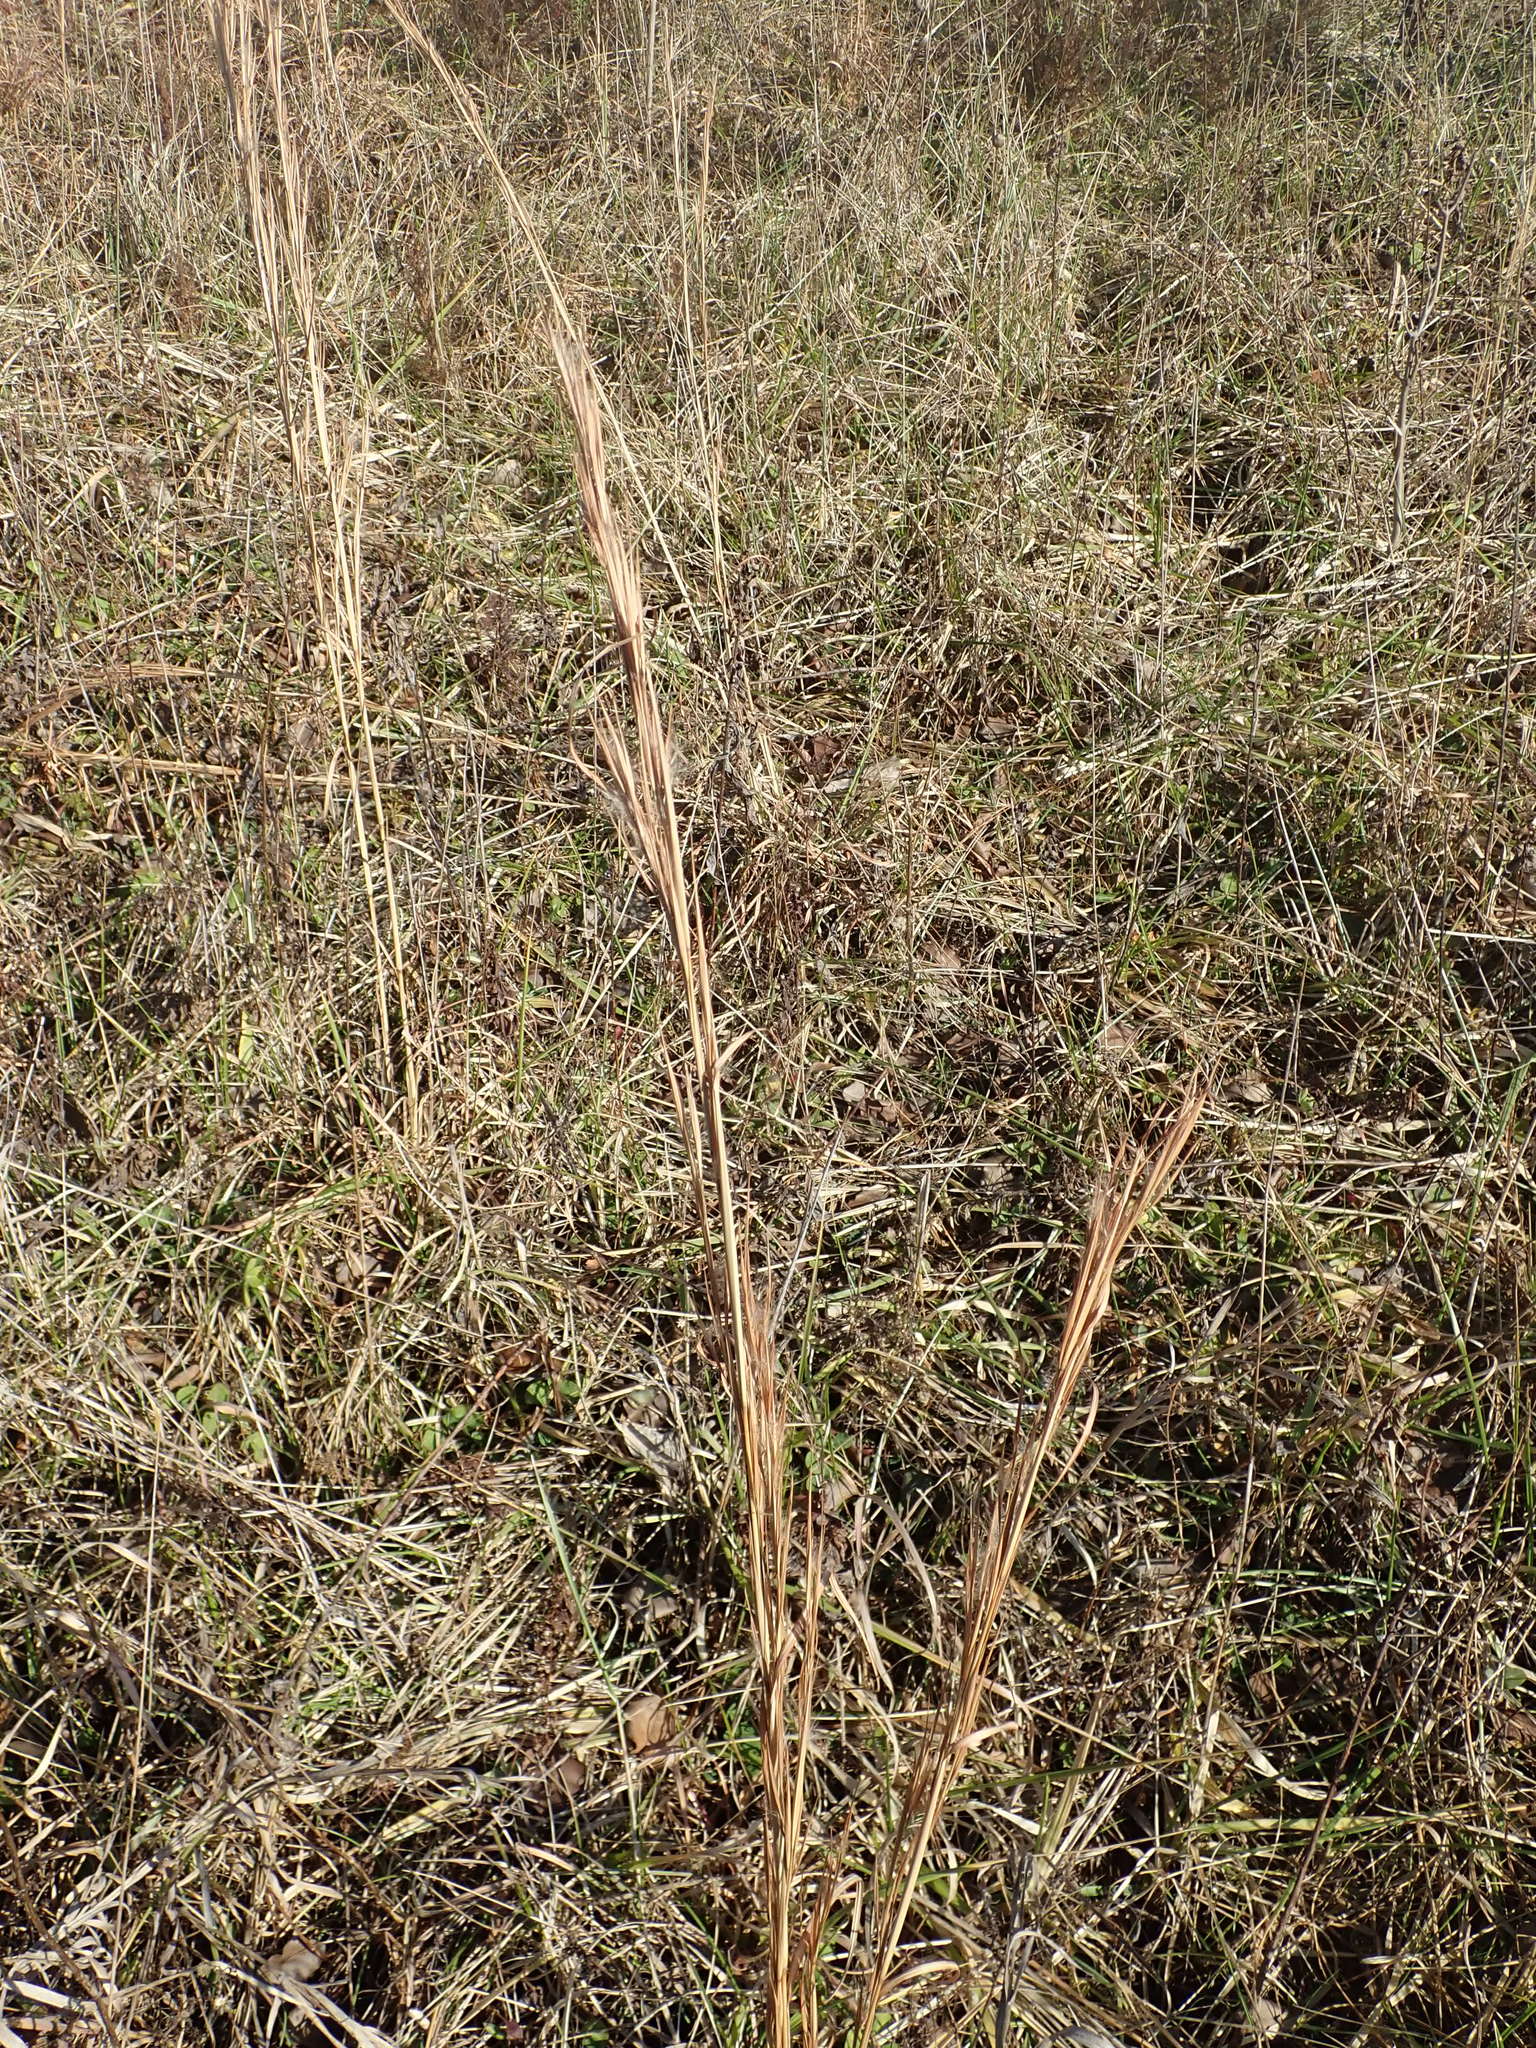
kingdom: Plantae
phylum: Tracheophyta
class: Liliopsida
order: Poales
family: Poaceae
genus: Andropogon
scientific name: Andropogon virginicus
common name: Broomsedge bluestem
